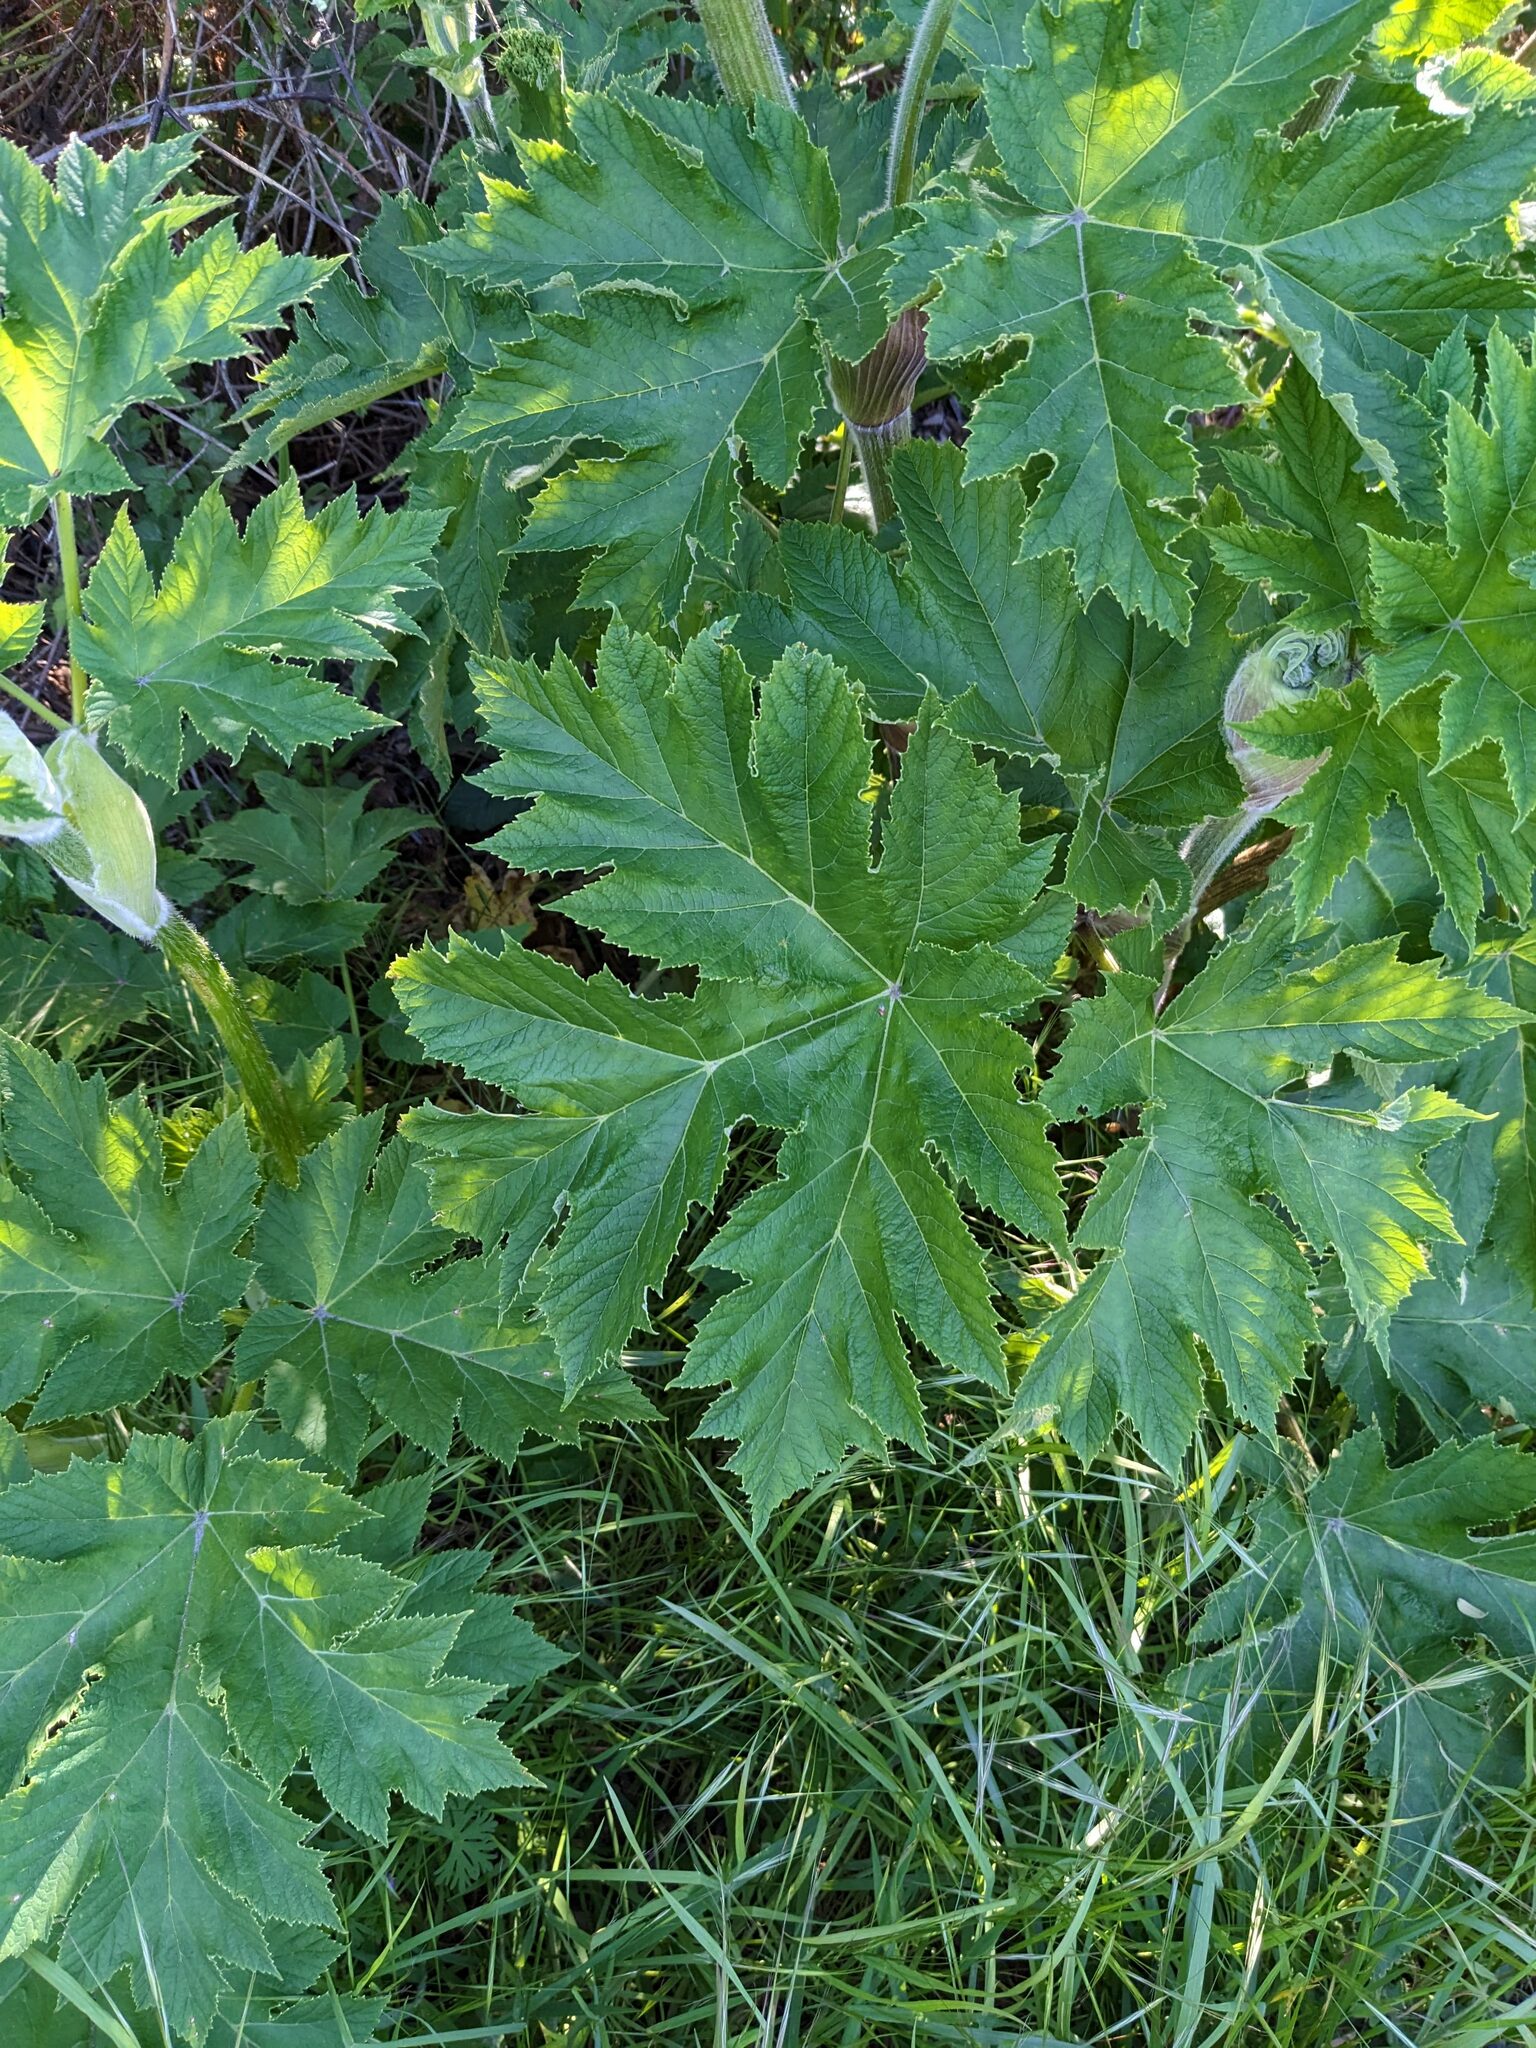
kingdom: Plantae
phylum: Tracheophyta
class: Magnoliopsida
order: Apiales
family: Apiaceae
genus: Heracleum
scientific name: Heracleum maximum
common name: American cow parsnip
